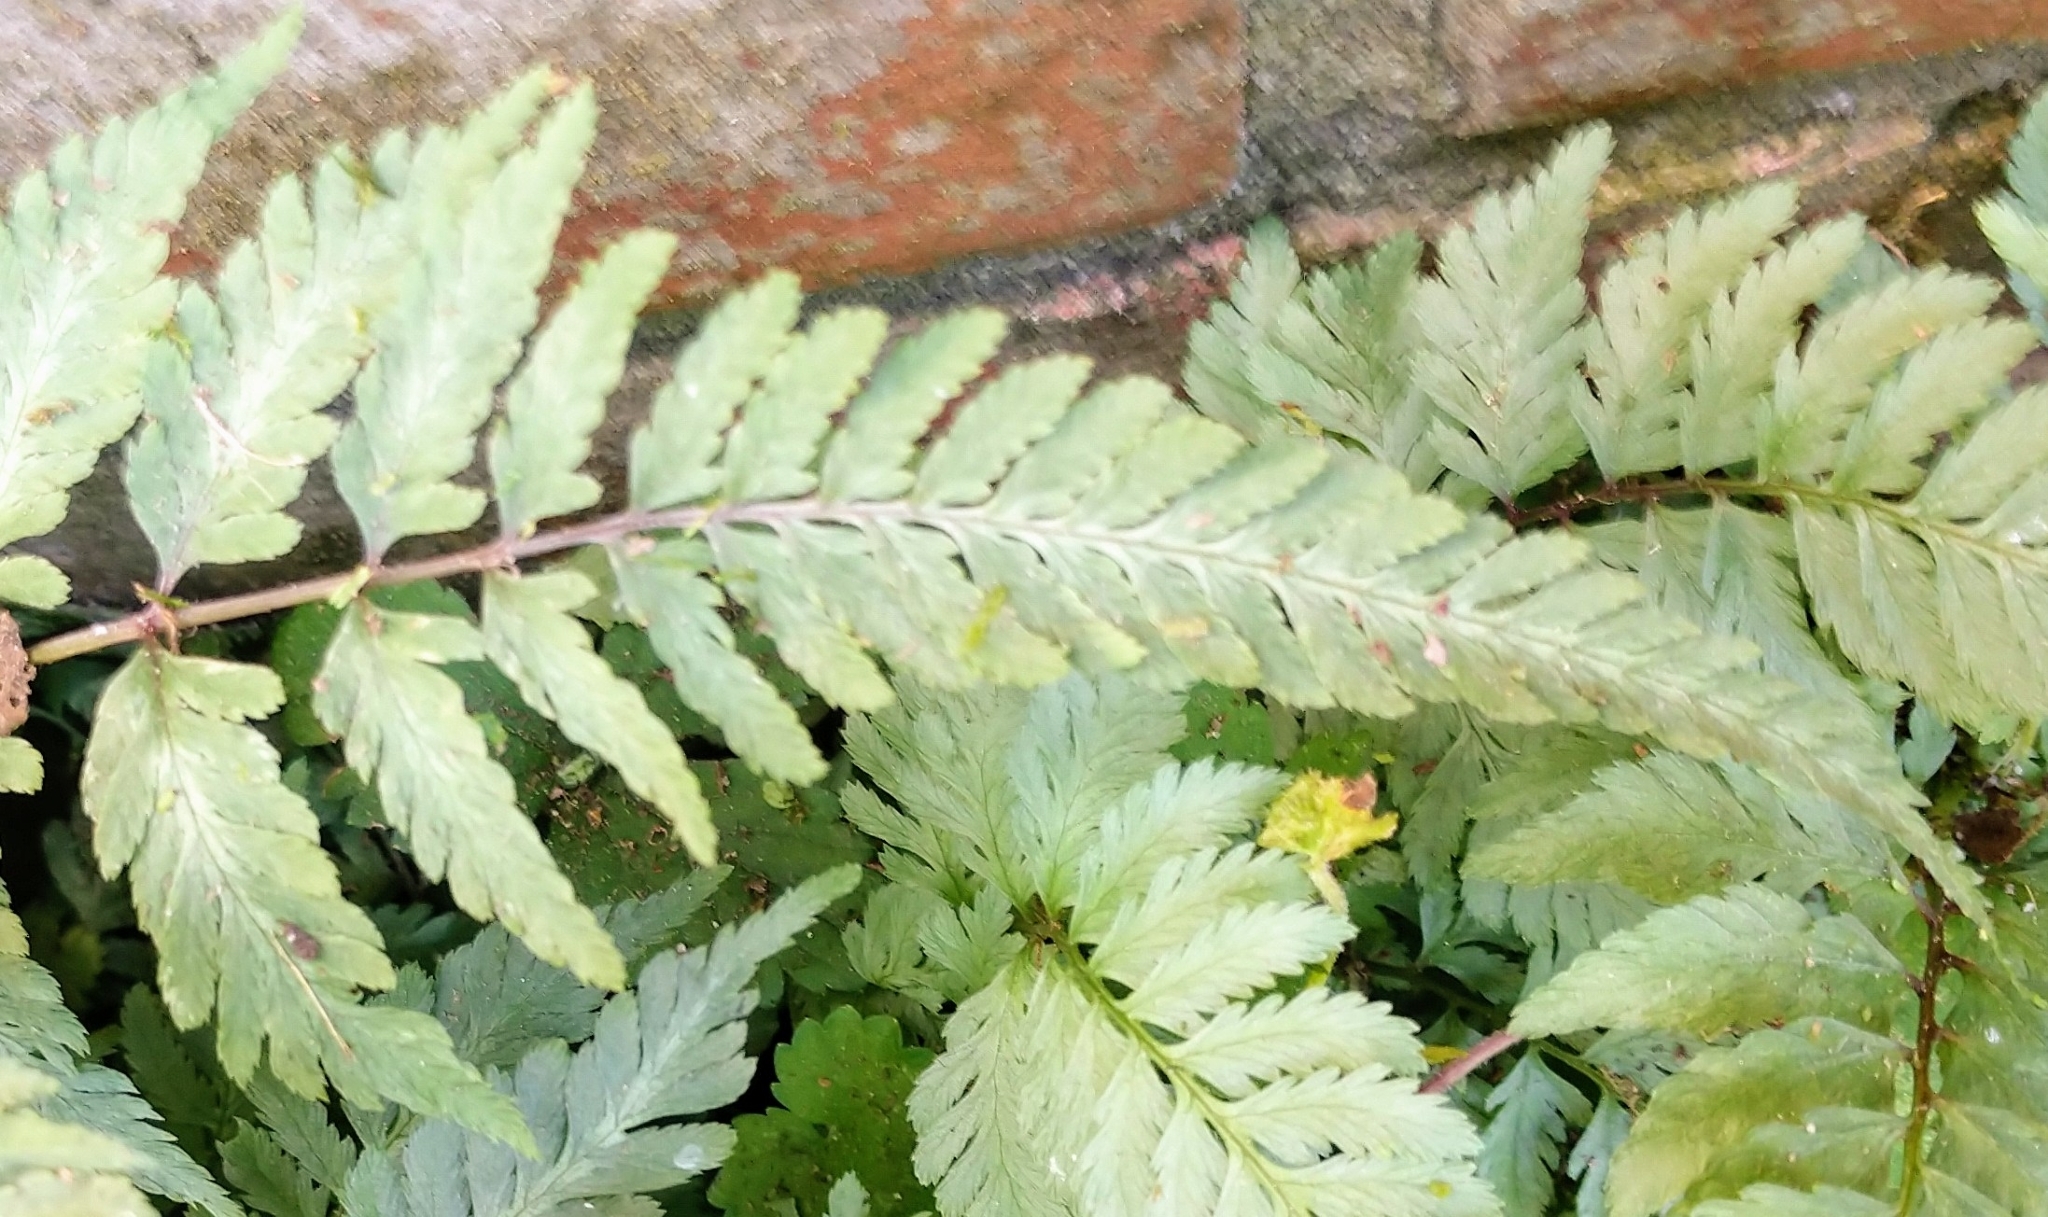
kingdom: Plantae
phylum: Tracheophyta
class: Polypodiopsida
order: Polypodiales
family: Athyriaceae
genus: Anisocampium
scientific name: Anisocampium niponicum
